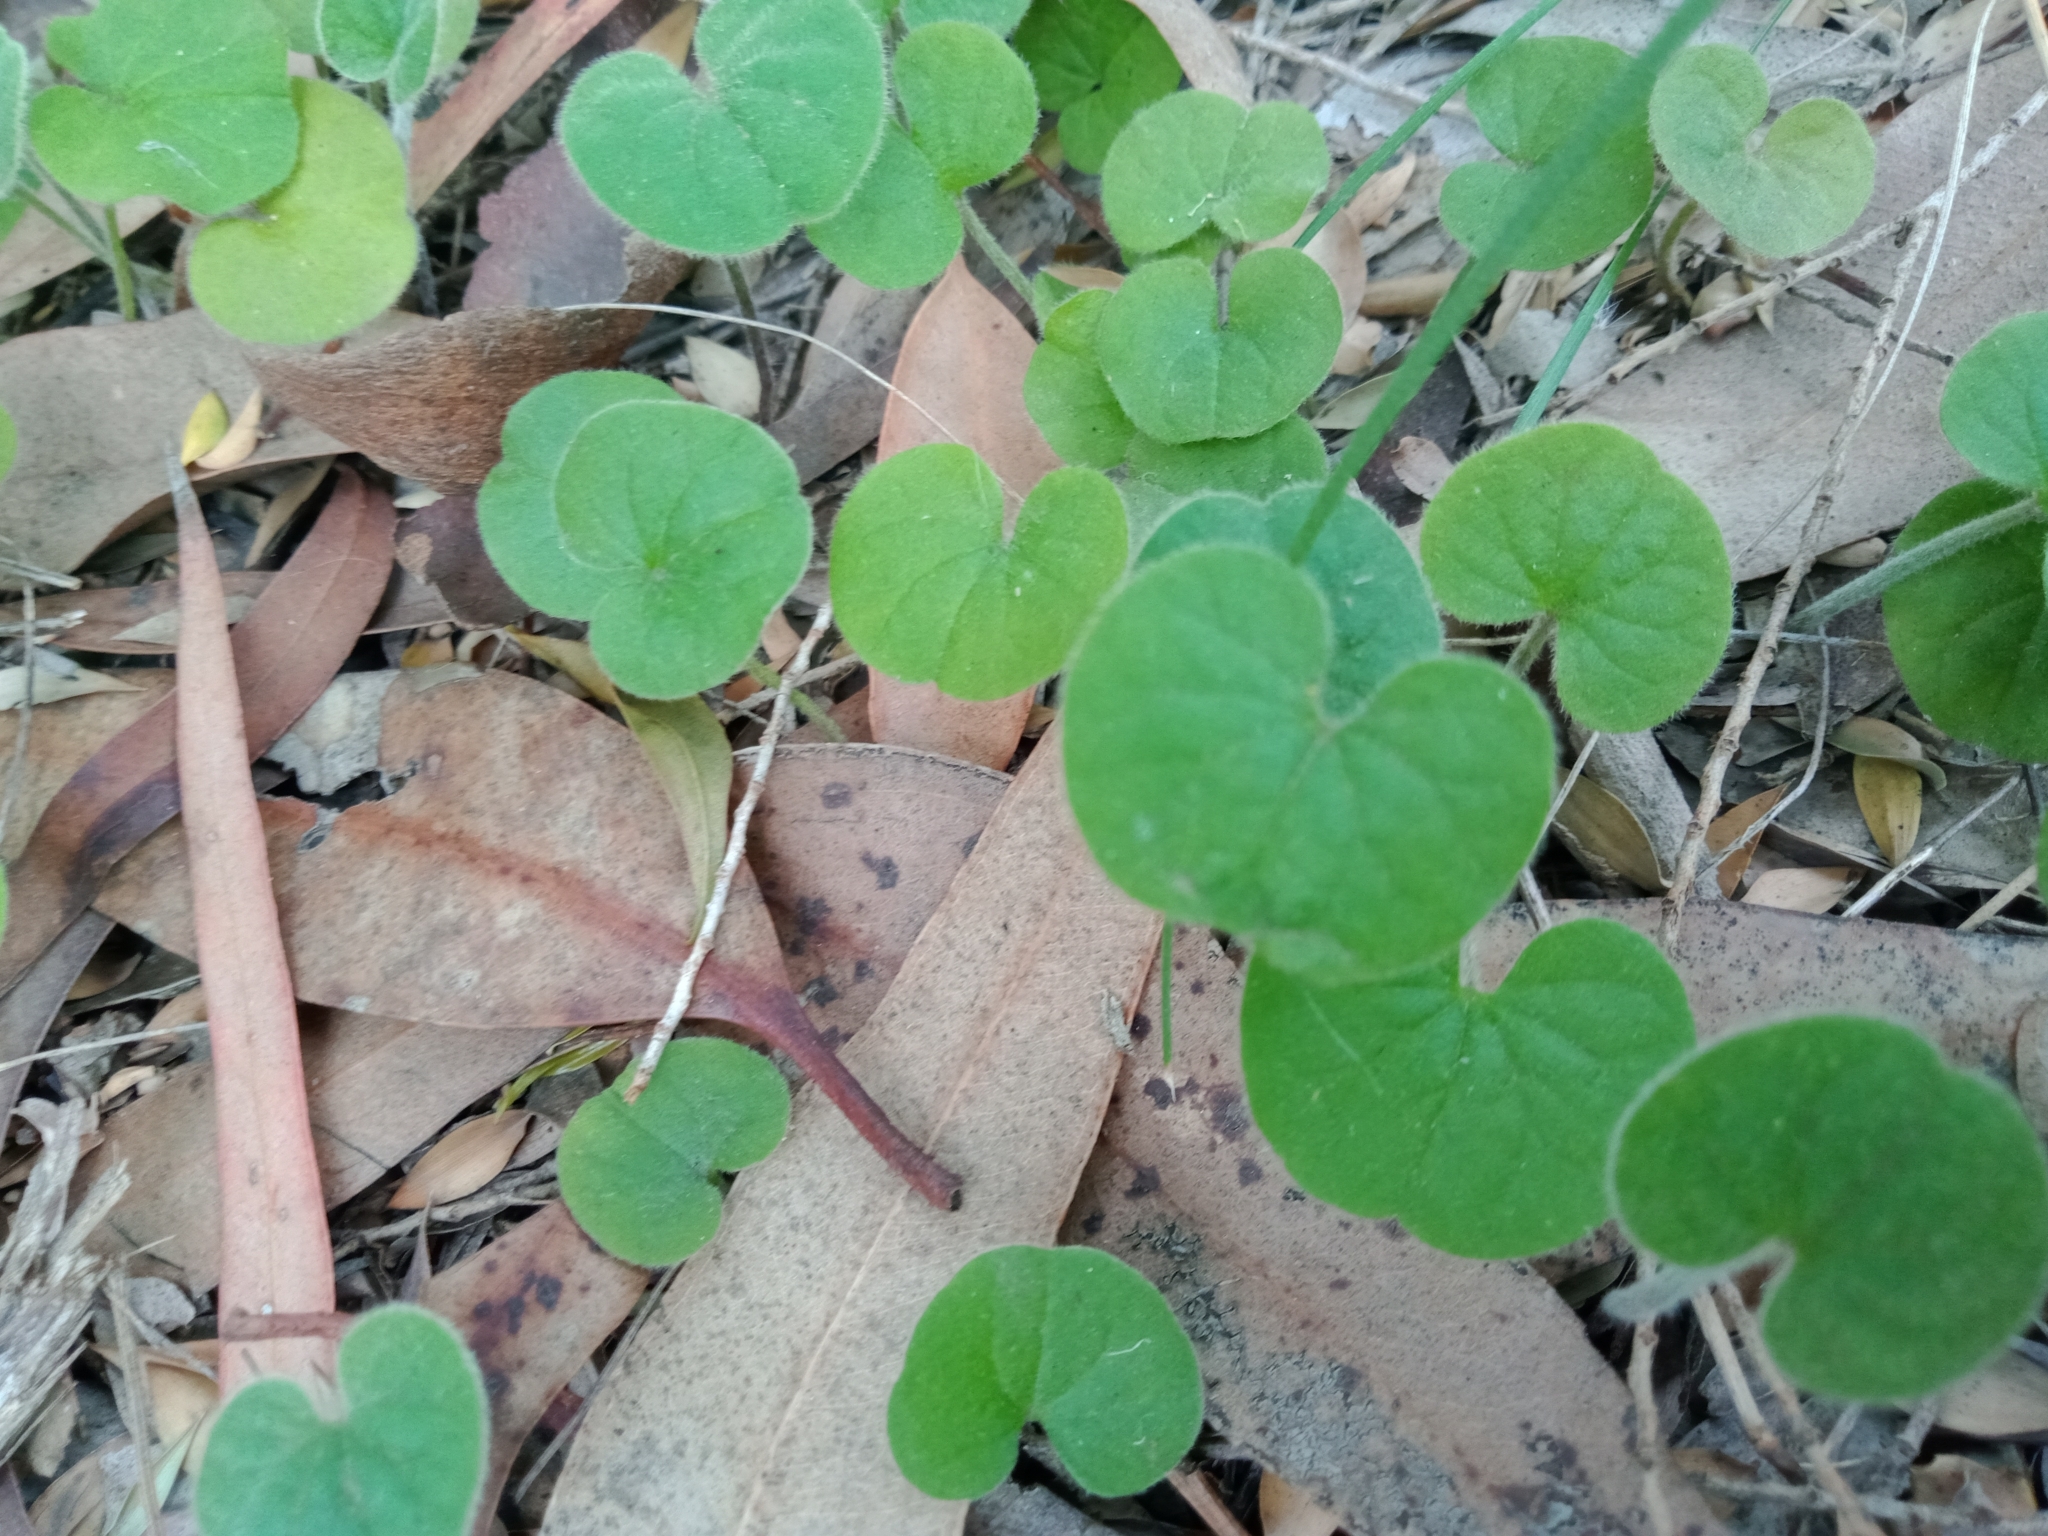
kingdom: Plantae
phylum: Tracheophyta
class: Magnoliopsida
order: Solanales
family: Convolvulaceae
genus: Dichondra
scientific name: Dichondra repens
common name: Kidneyweed
